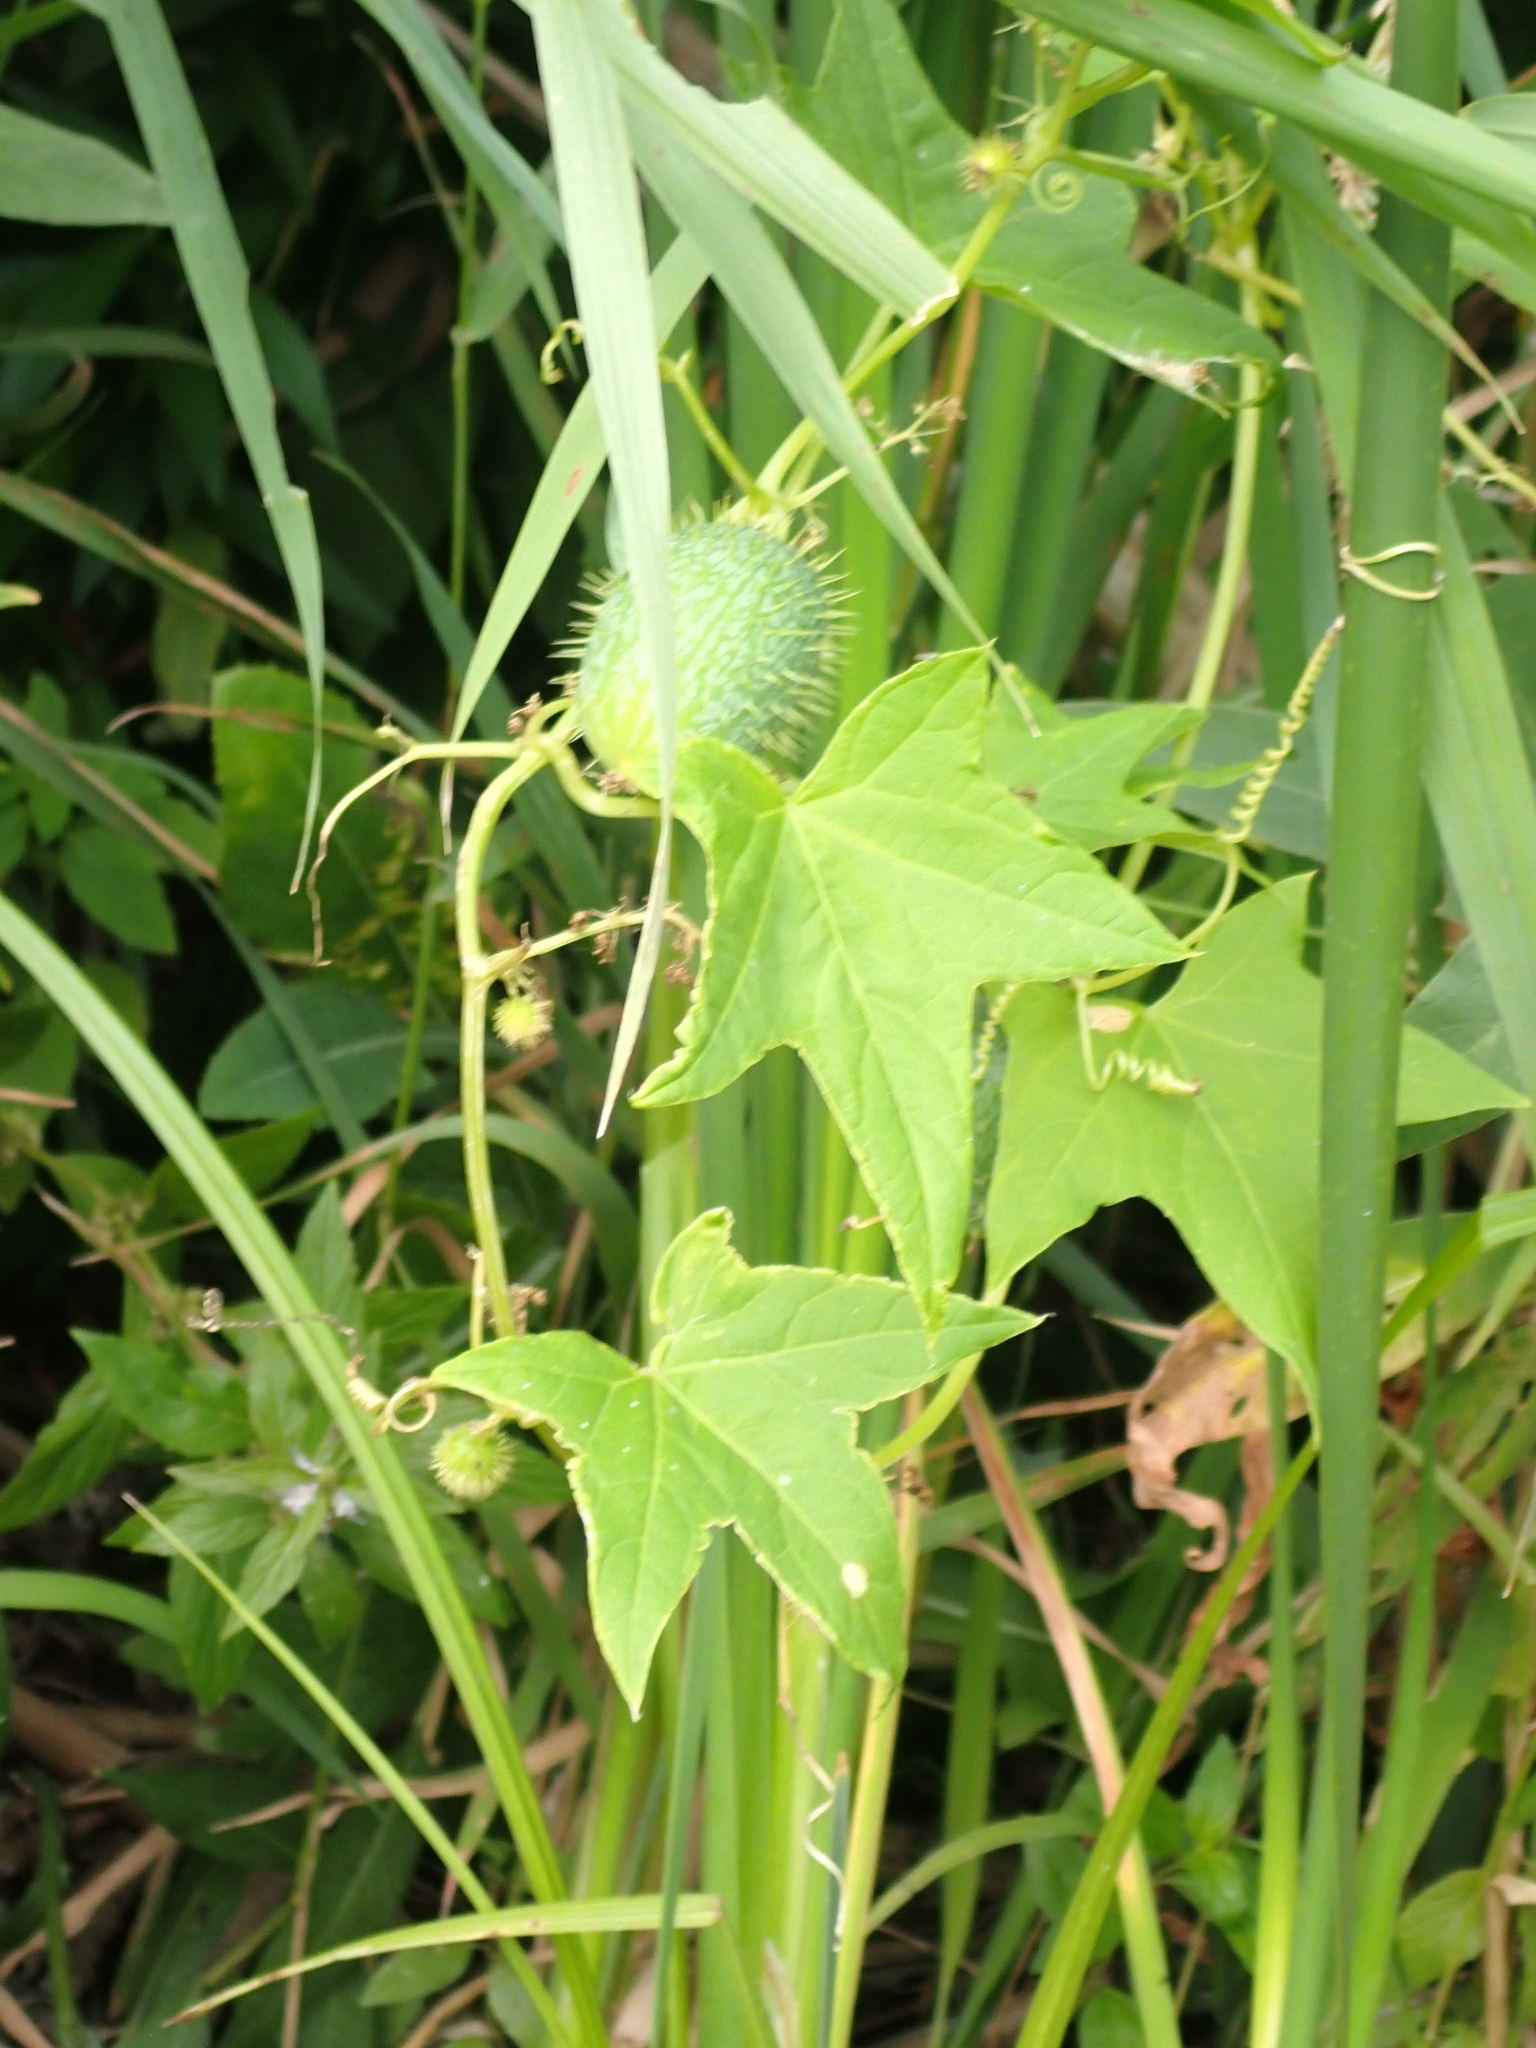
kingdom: Plantae
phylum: Tracheophyta
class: Magnoliopsida
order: Cucurbitales
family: Cucurbitaceae
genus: Echinocystis
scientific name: Echinocystis lobata
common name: Wild cucumber
